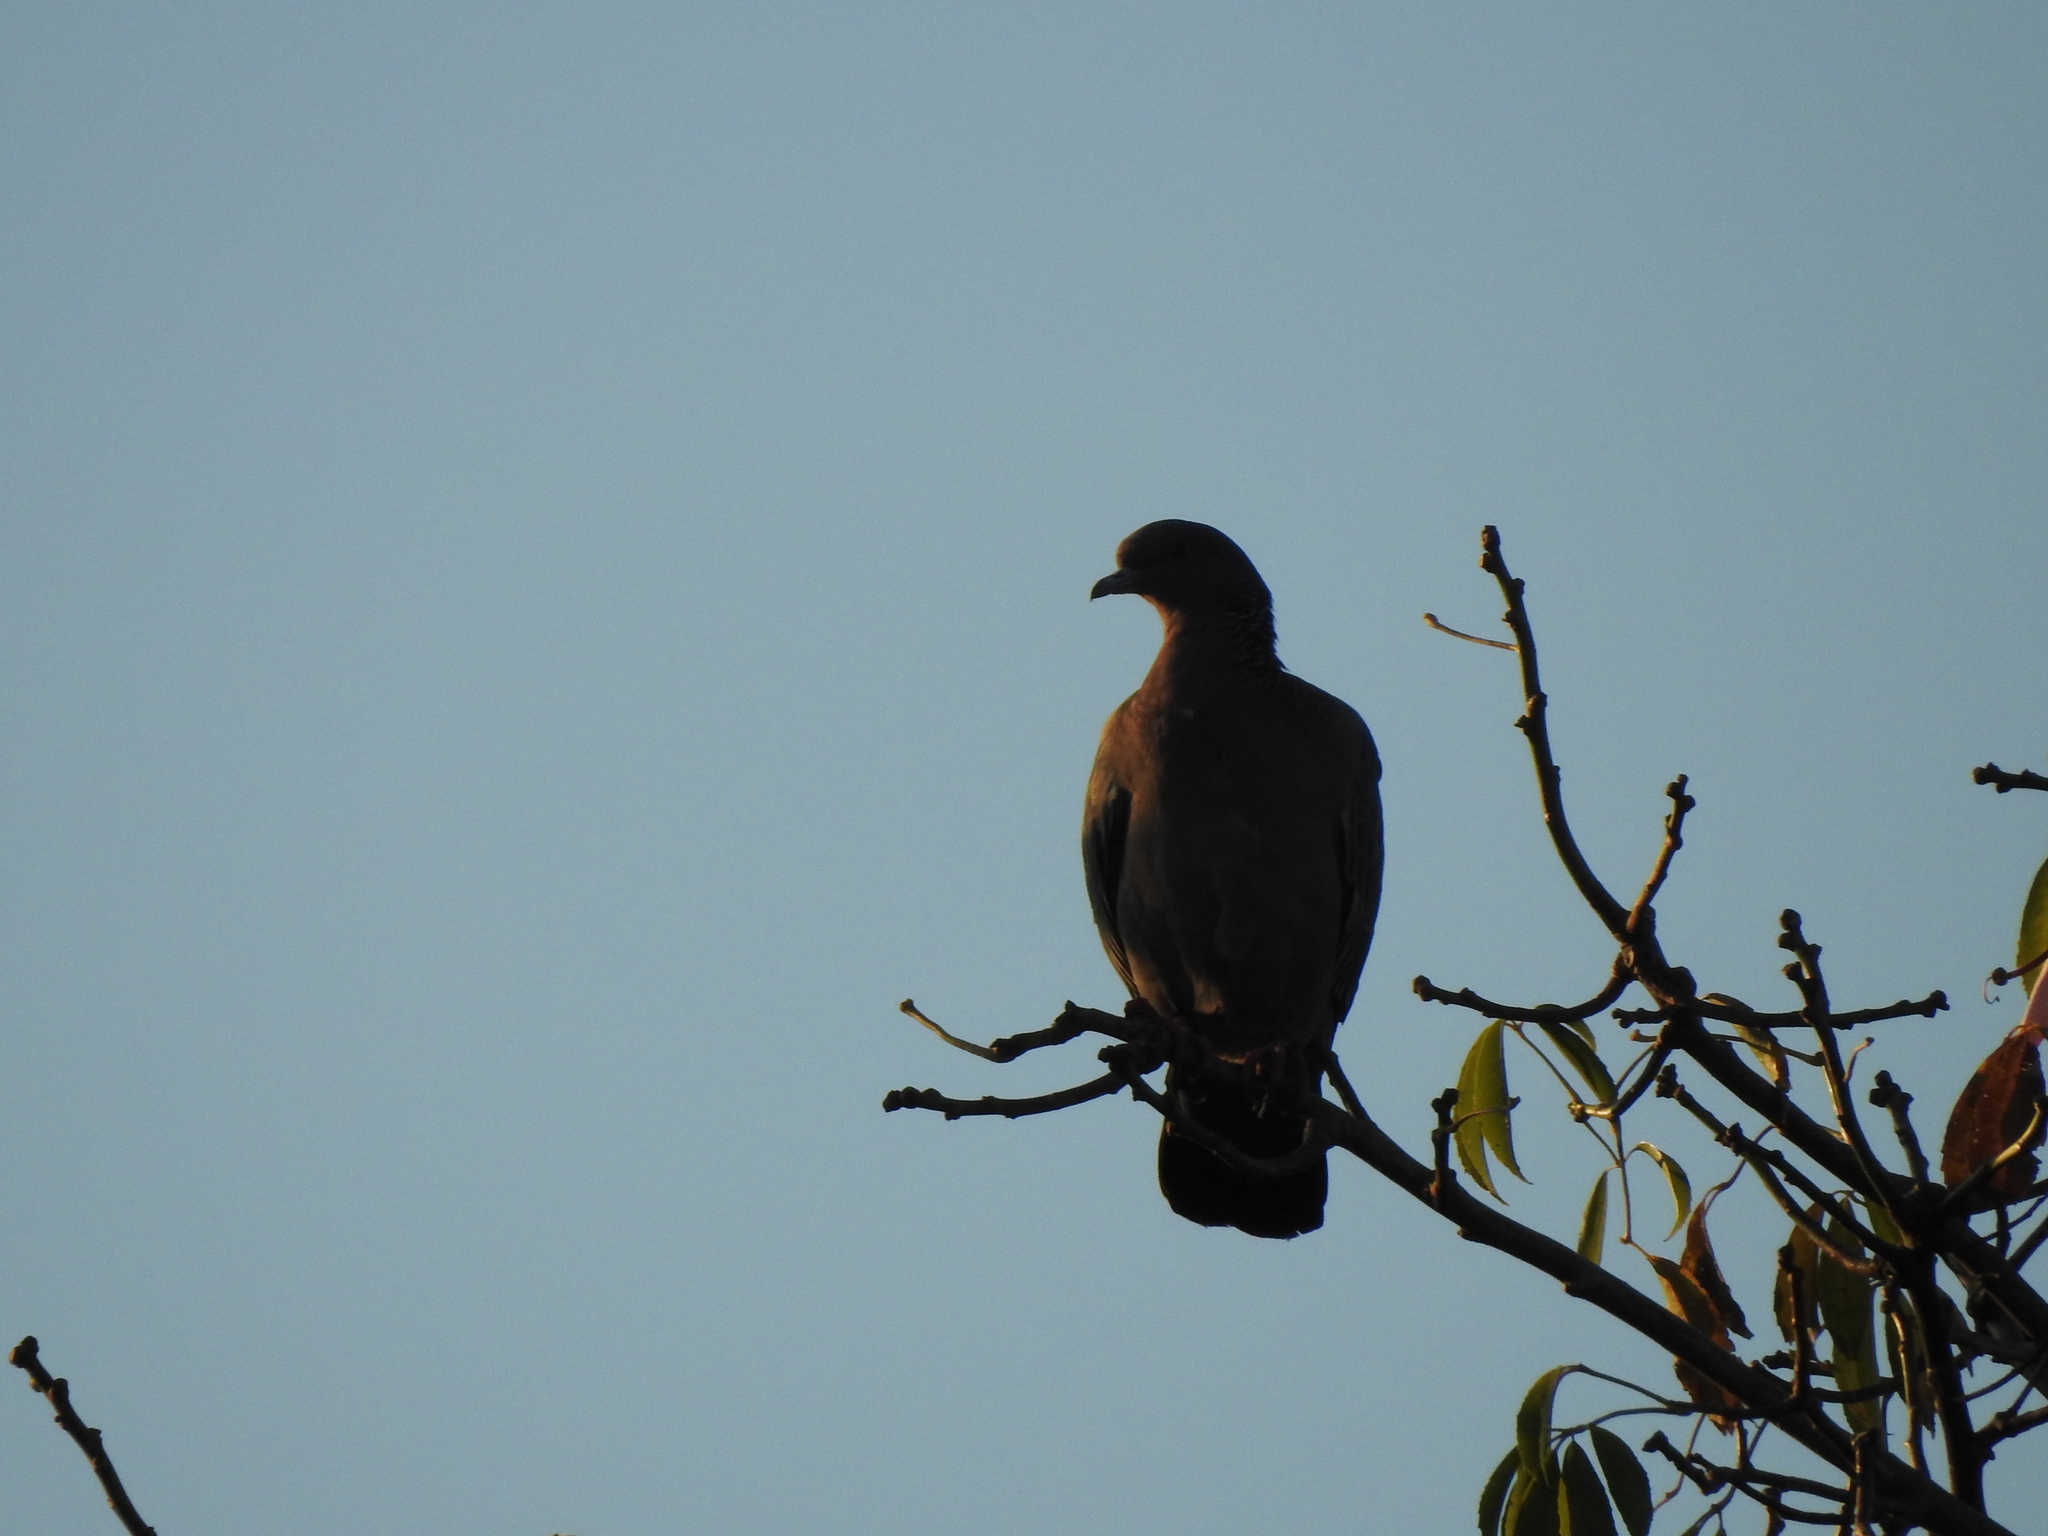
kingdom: Animalia
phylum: Chordata
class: Aves
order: Columbiformes
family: Columbidae
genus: Patagioenas
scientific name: Patagioenas picazuro
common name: Picazuro pigeon
